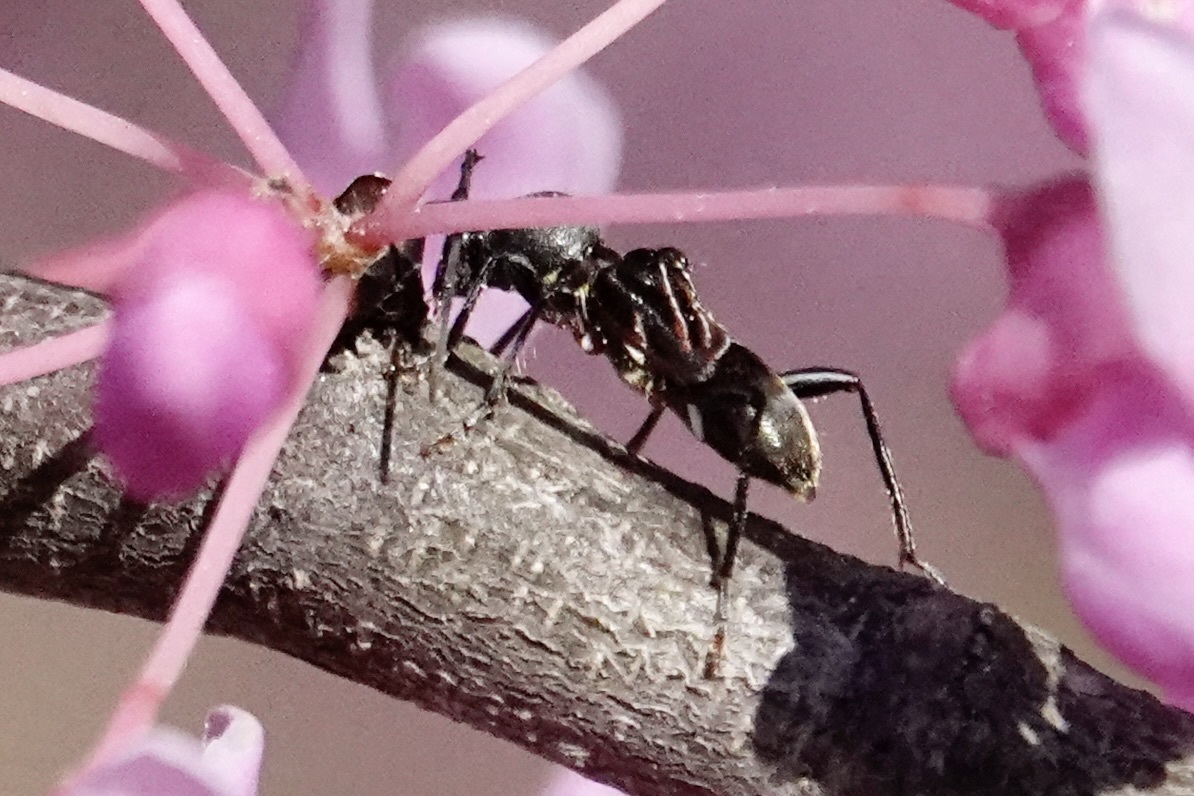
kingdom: Animalia
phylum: Arthropoda
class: Insecta
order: Coleoptera
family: Cerambycidae
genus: Cyrtophorus
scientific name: Cyrtophorus verrucosus
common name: Ant-like longhorn beetle
